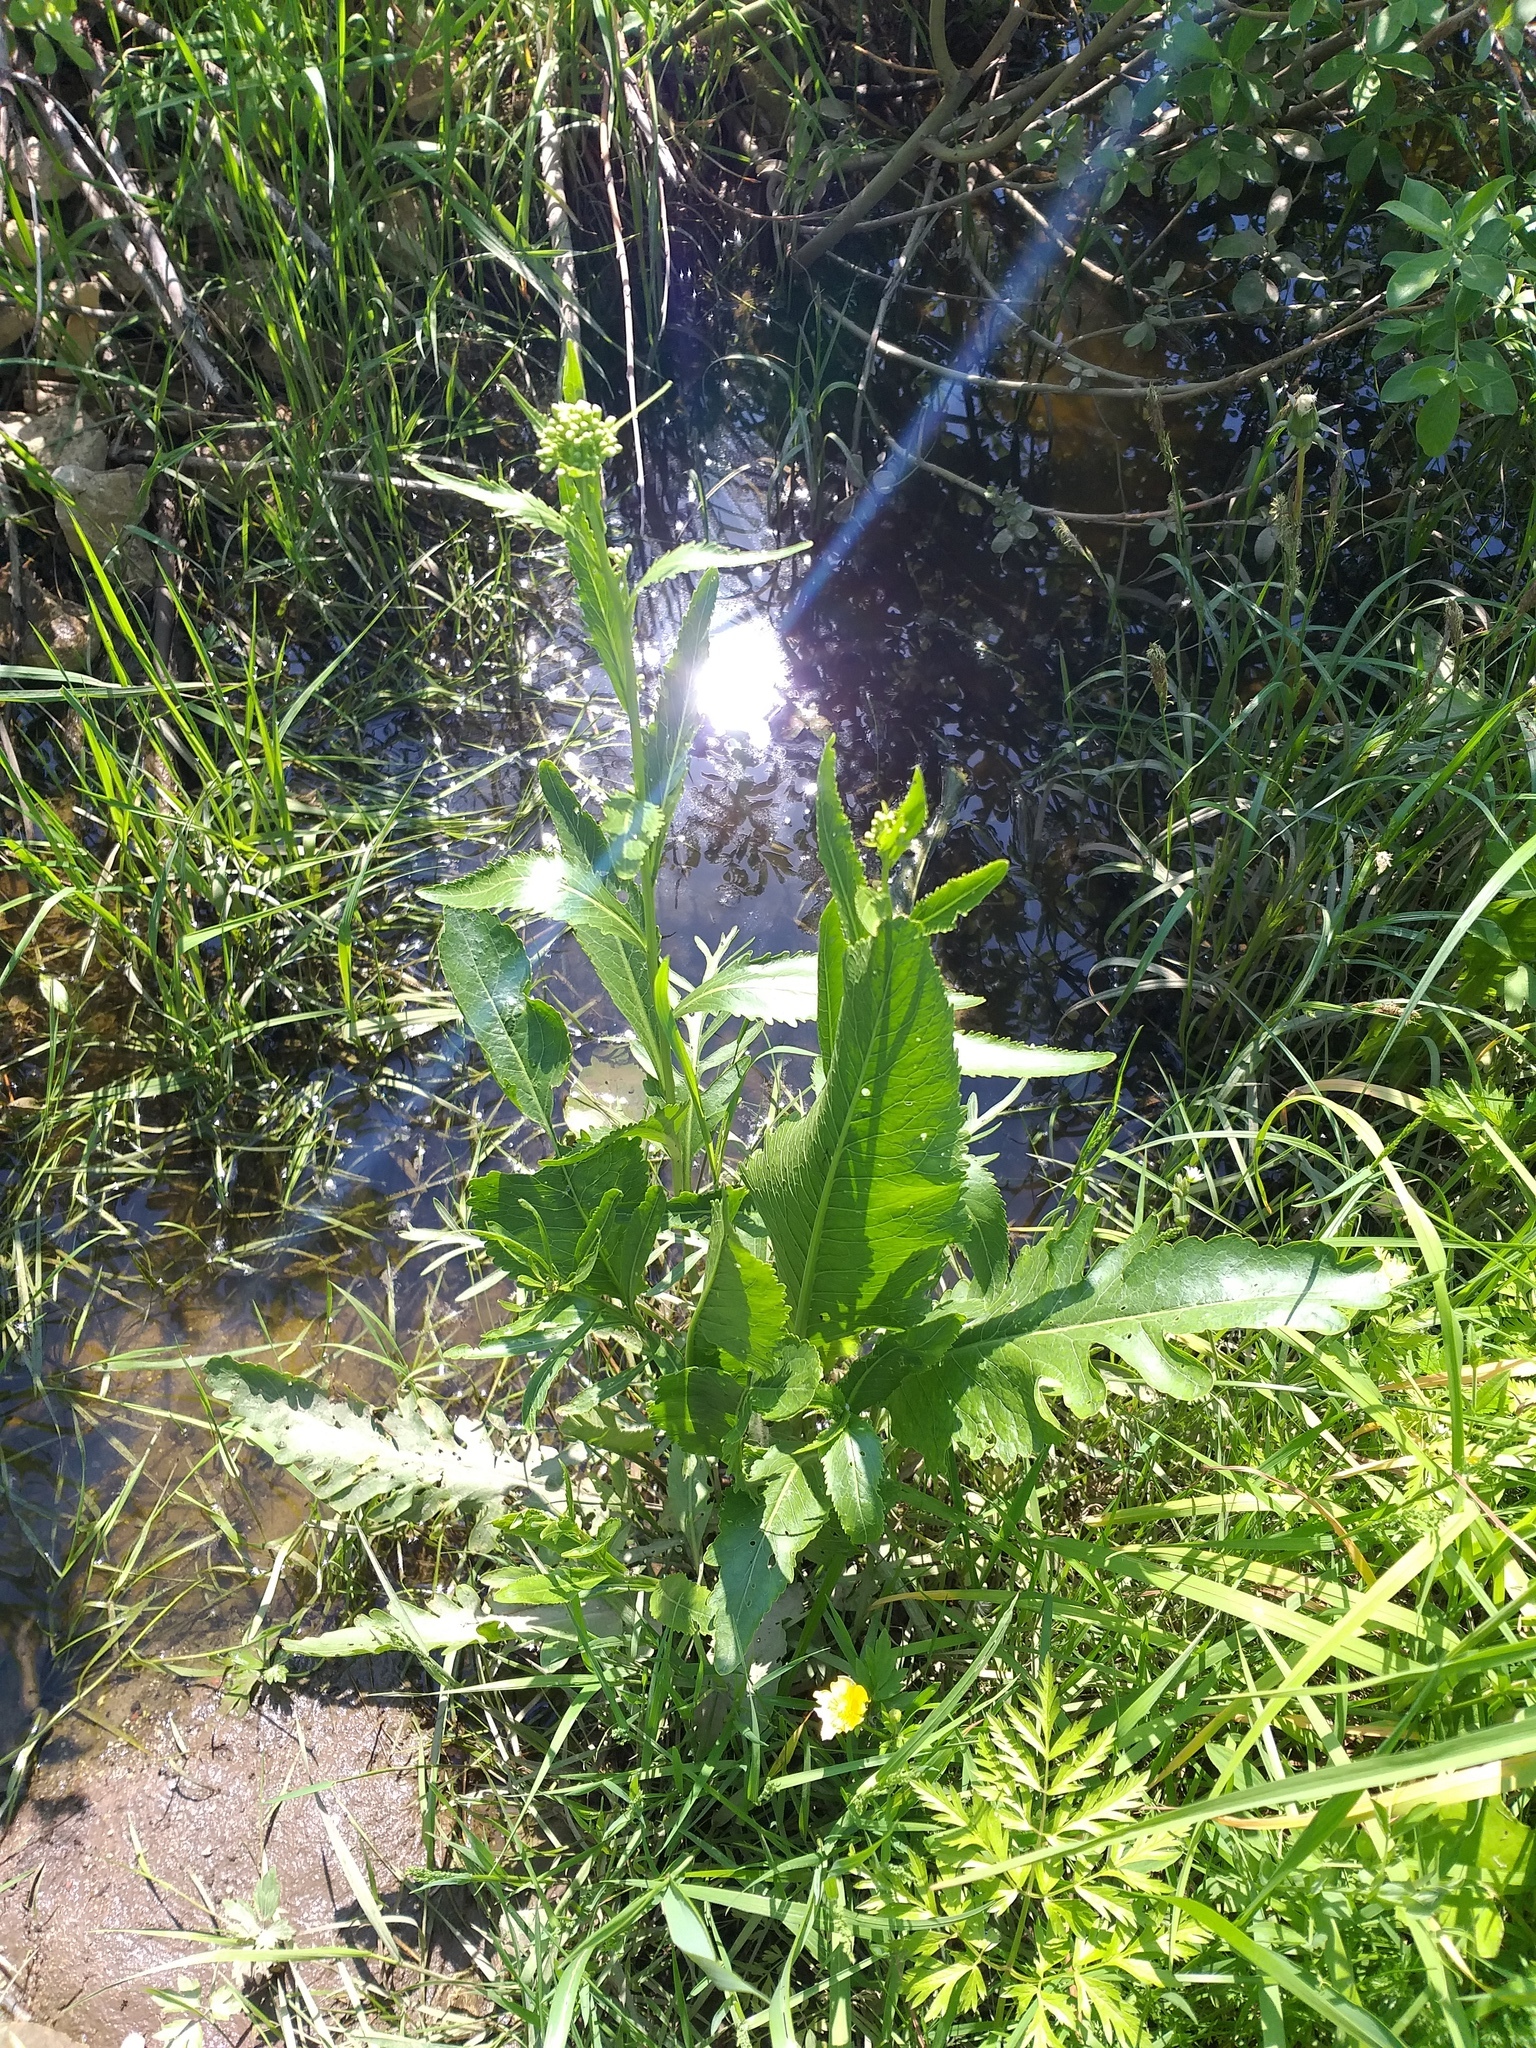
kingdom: Plantae
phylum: Tracheophyta
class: Magnoliopsida
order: Brassicales
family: Brassicaceae
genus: Armoracia
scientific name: Armoracia rusticana
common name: Horseradish
